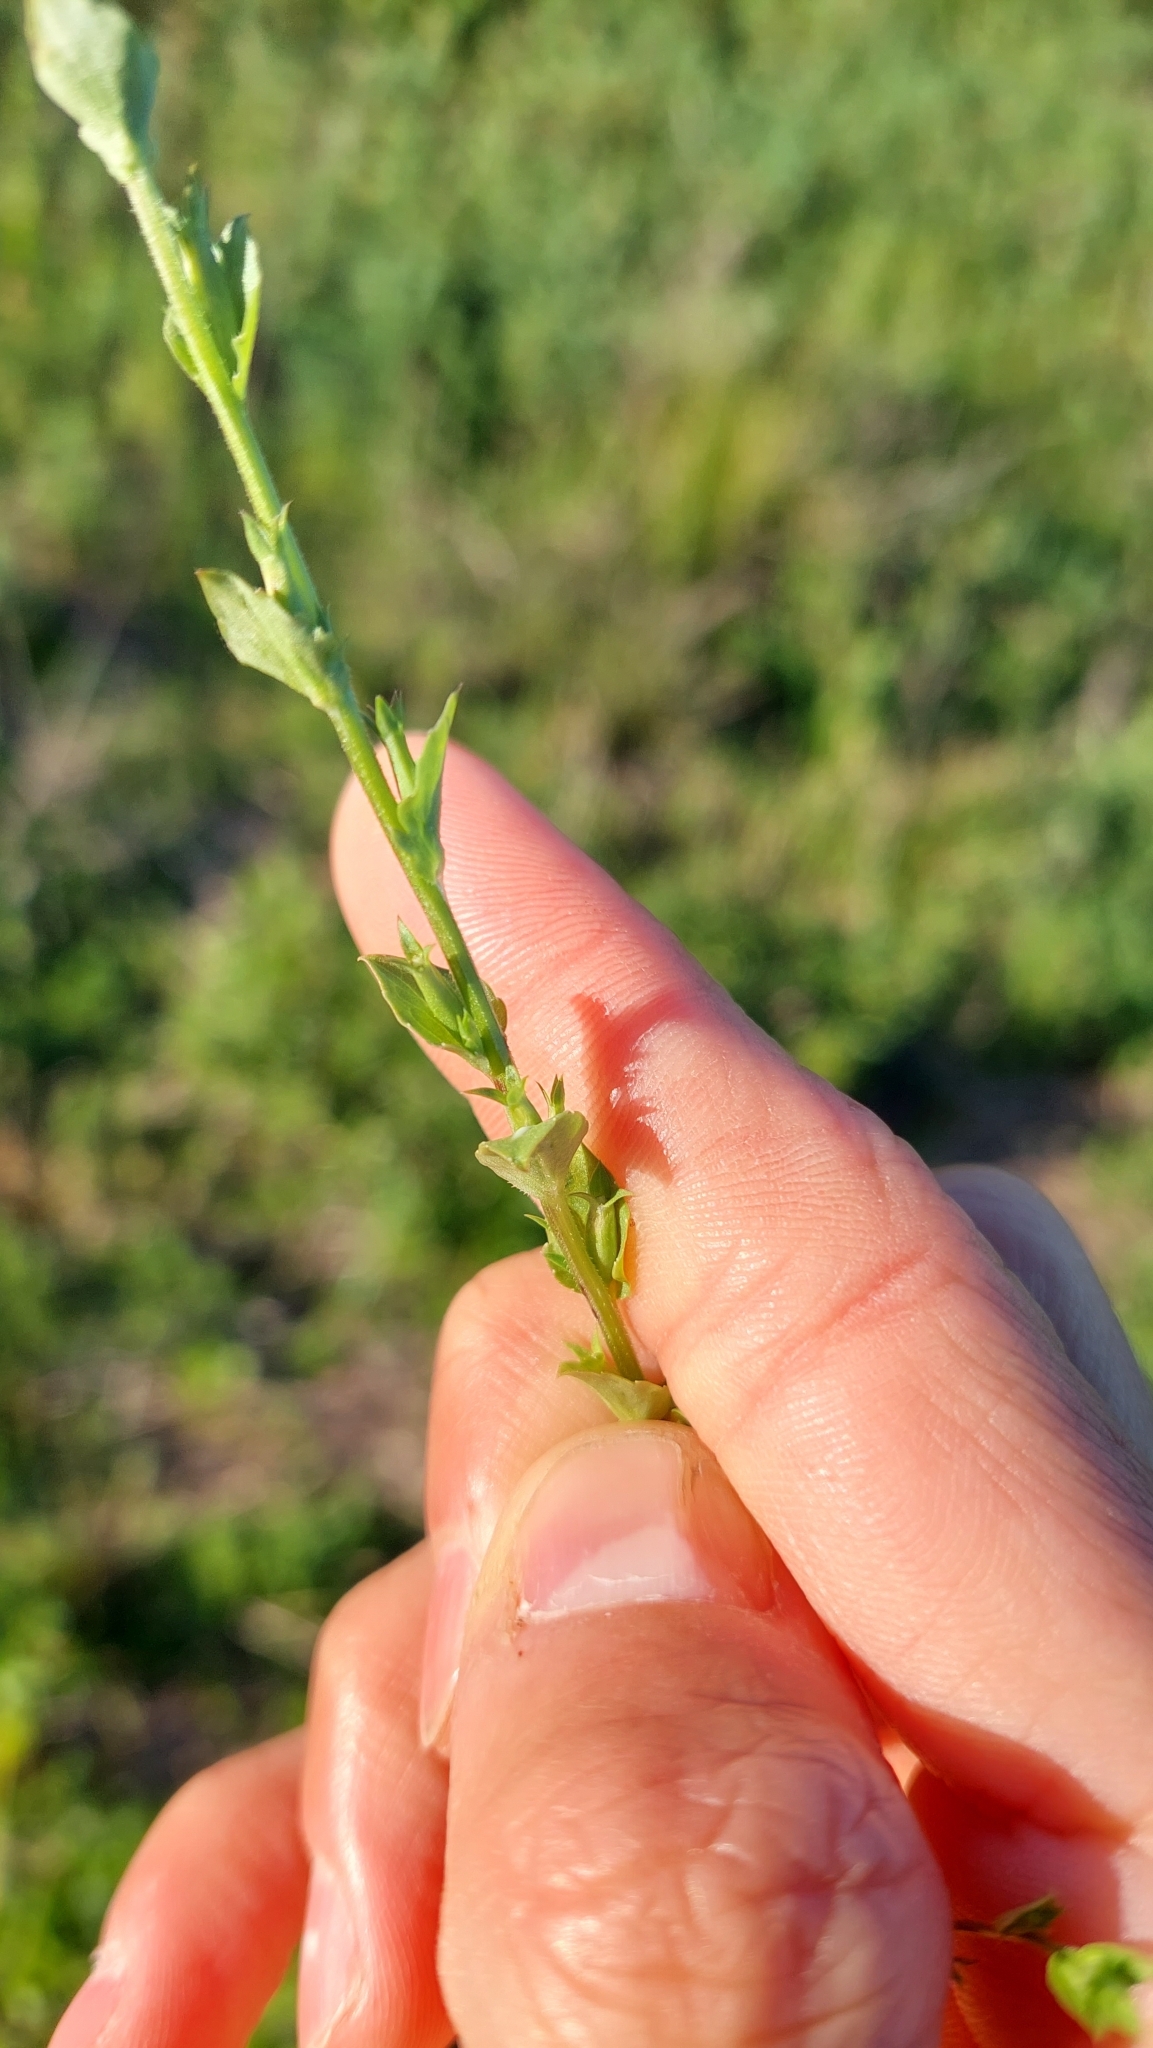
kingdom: Plantae
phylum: Tracheophyta
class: Magnoliopsida
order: Asterales
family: Campanulaceae
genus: Triodanis
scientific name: Triodanis biflora
